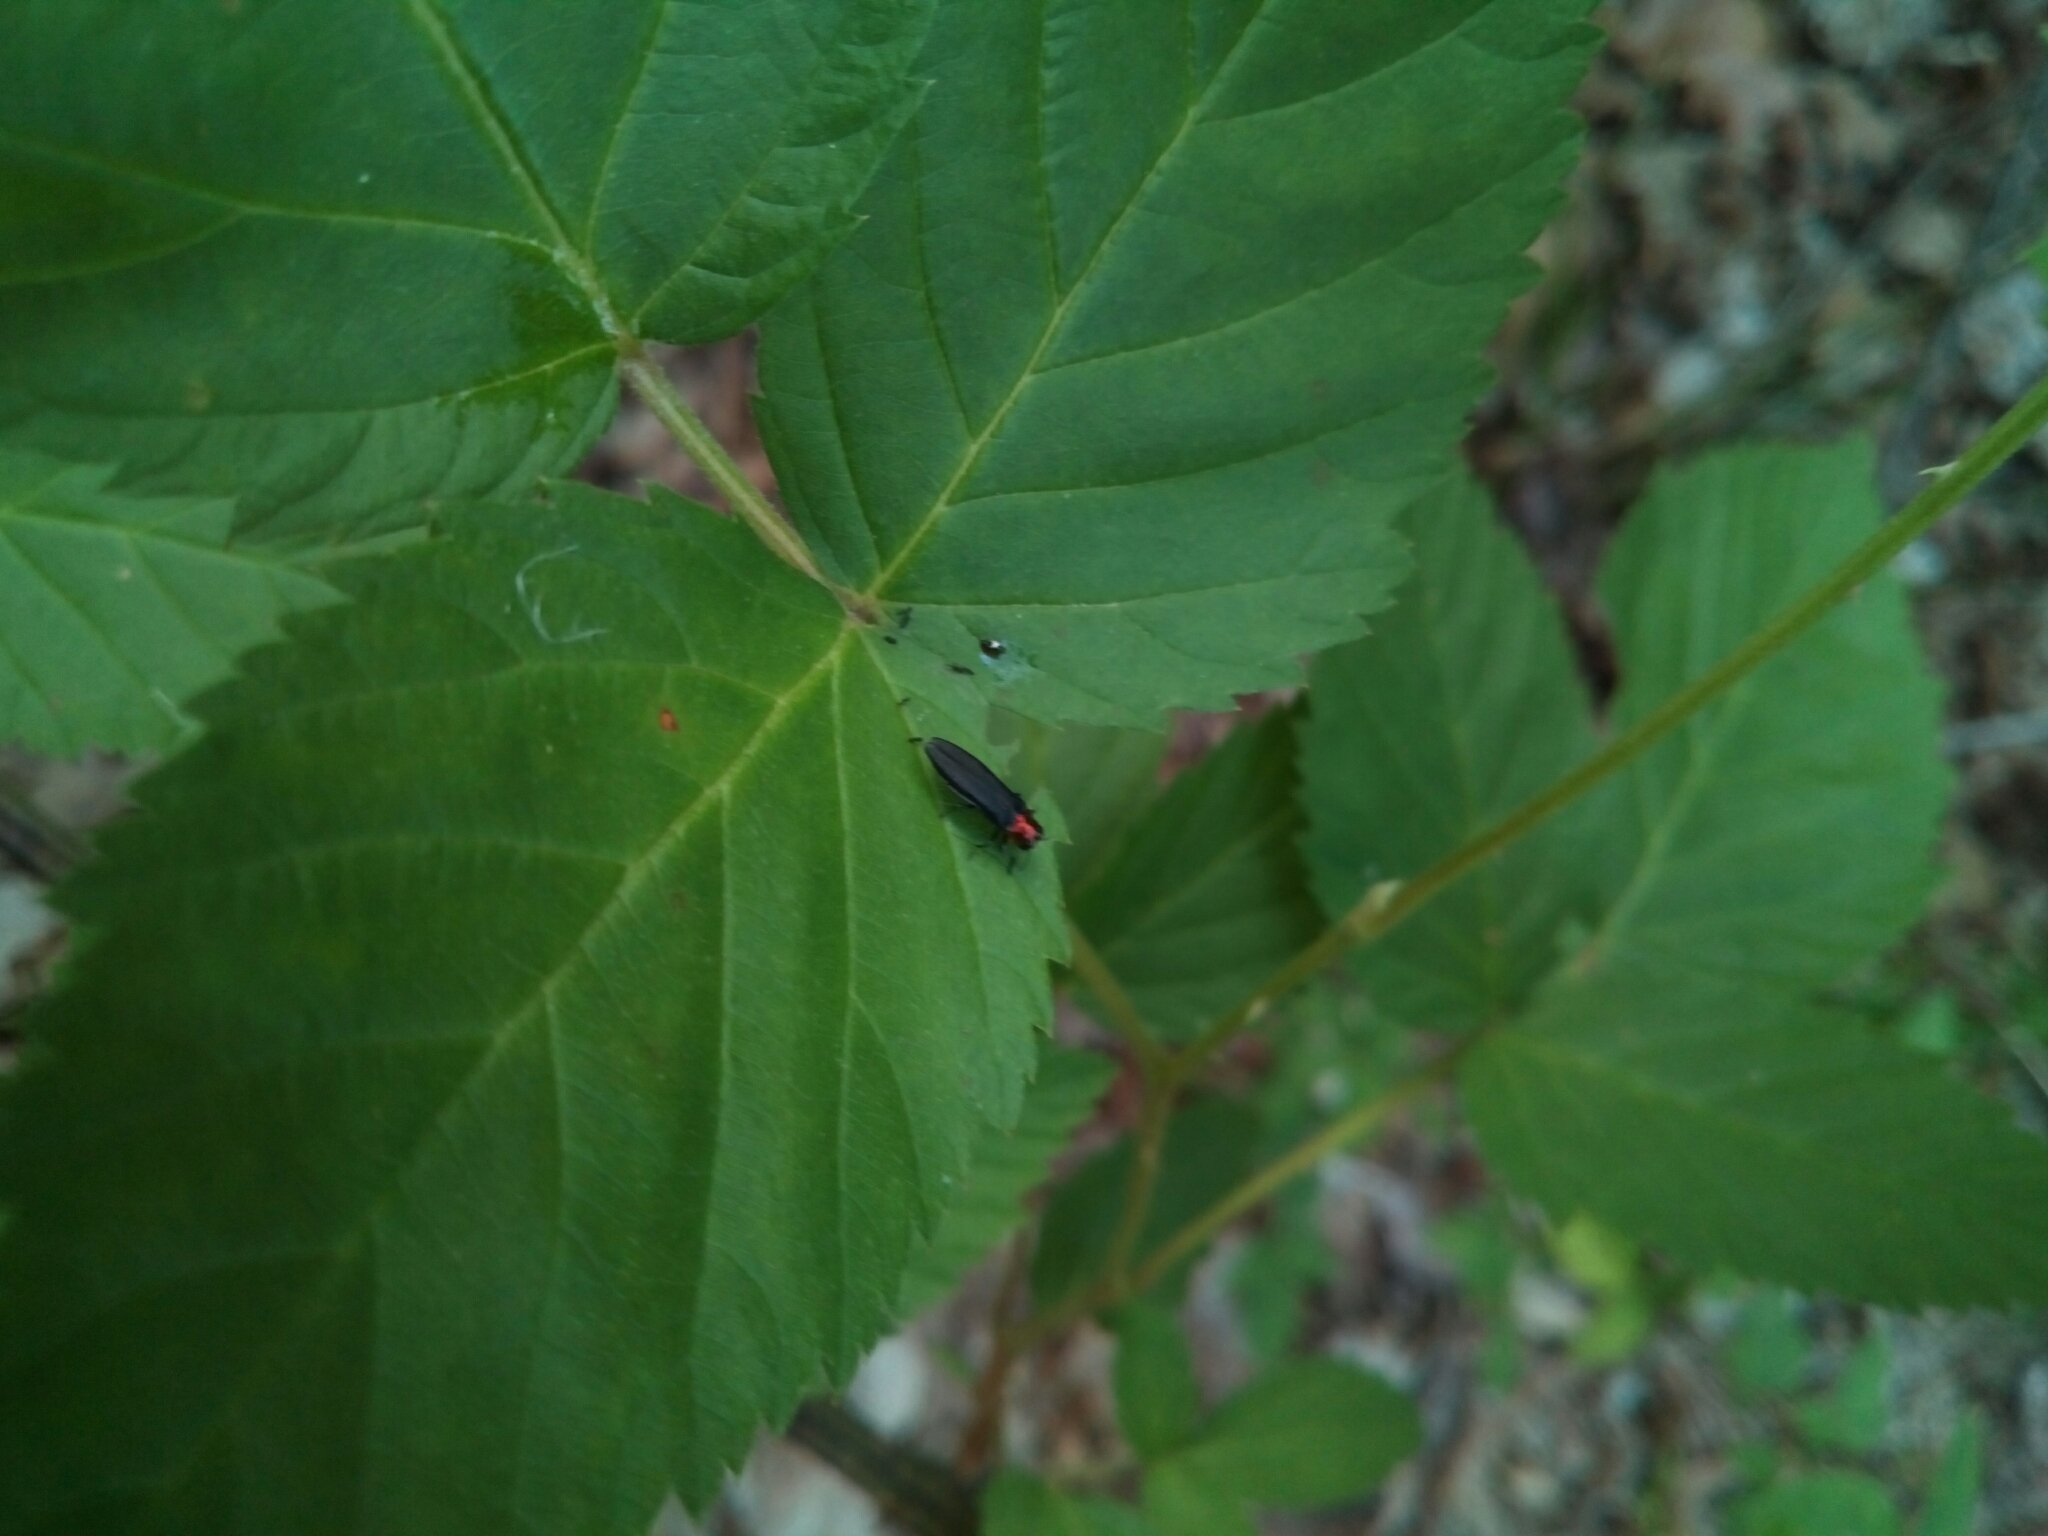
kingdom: Animalia
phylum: Arthropoda
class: Insecta
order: Coleoptera
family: Buprestidae
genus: Agrilus
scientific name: Agrilus ruficollis
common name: Red-necked cane borer beetle
